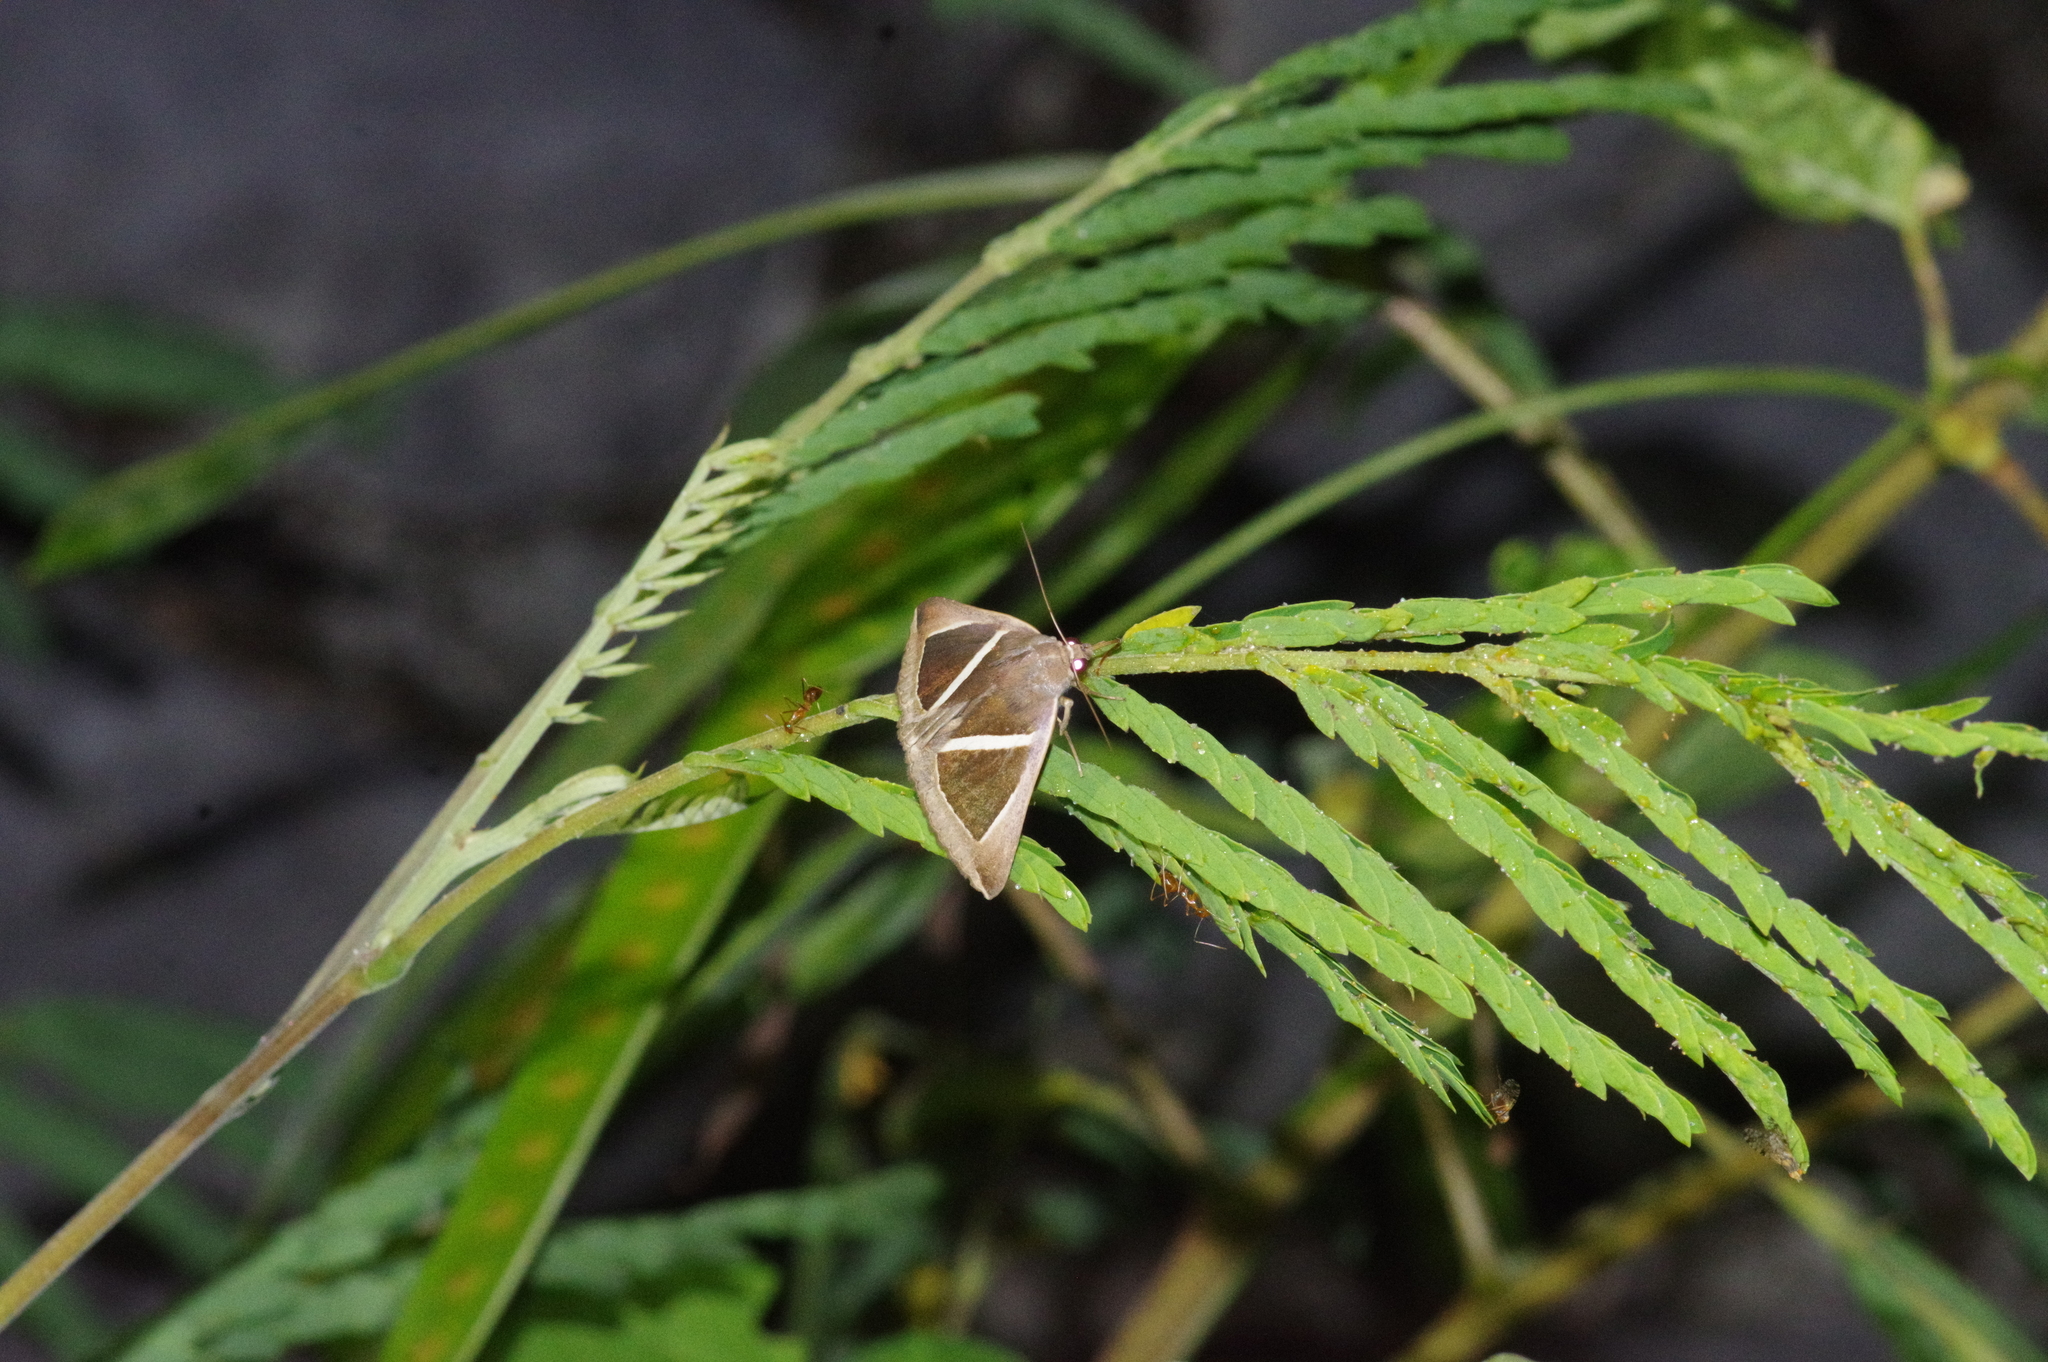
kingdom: Animalia
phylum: Arthropoda
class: Insecta
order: Lepidoptera
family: Erebidae
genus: Chalciope
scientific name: Chalciope mygdon
